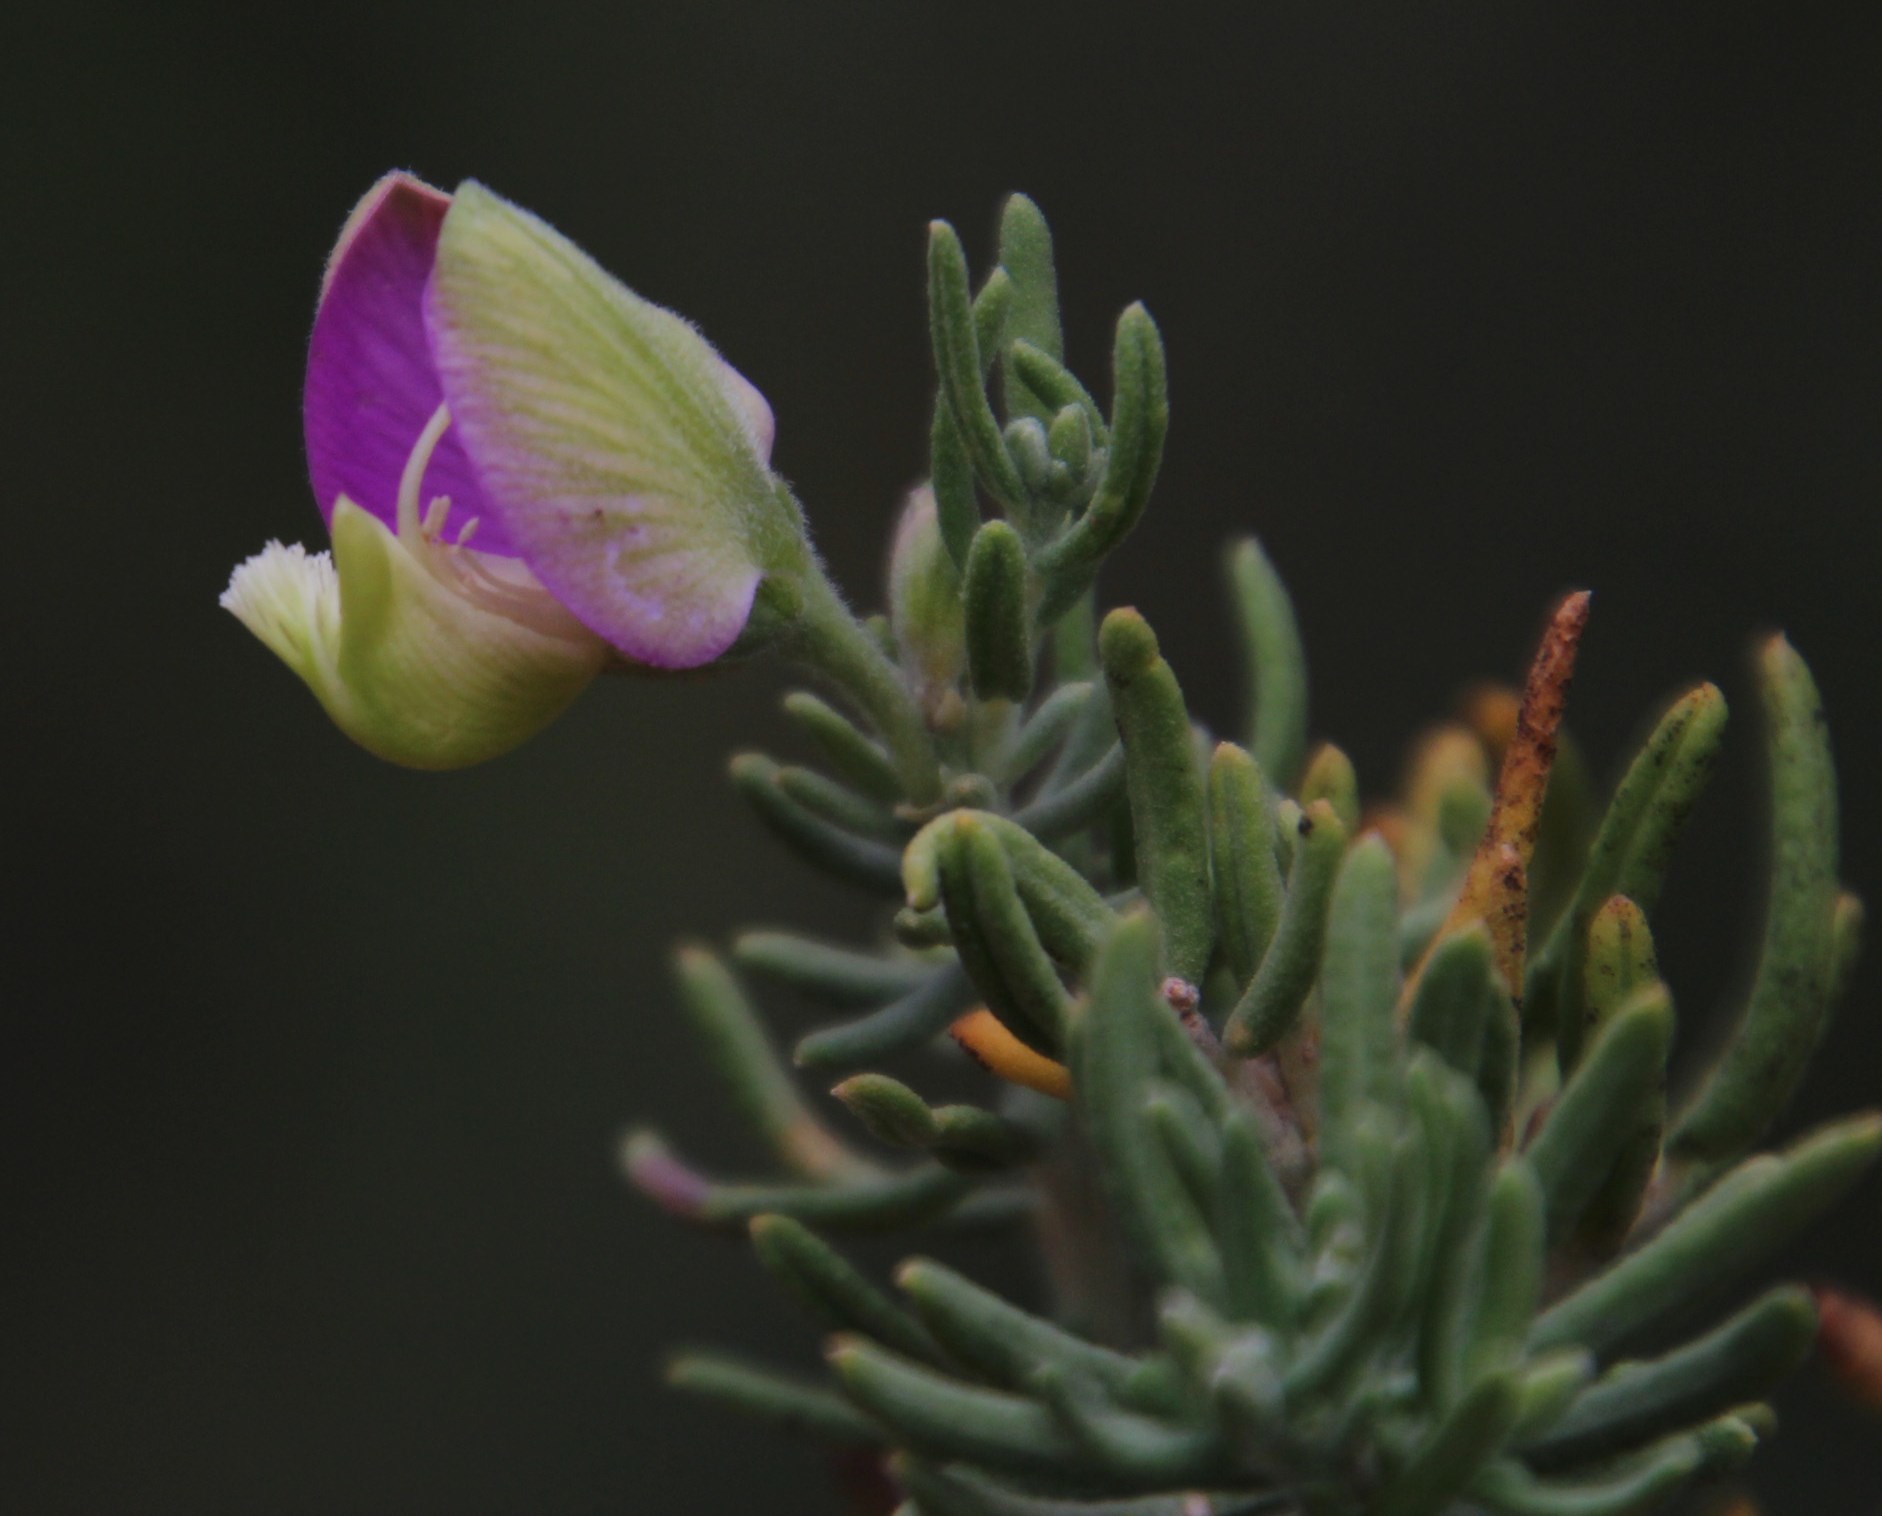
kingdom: Plantae
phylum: Tracheophyta
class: Magnoliopsida
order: Fabales
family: Polygalaceae
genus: Polygala
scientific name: Polygala lasiosepala
